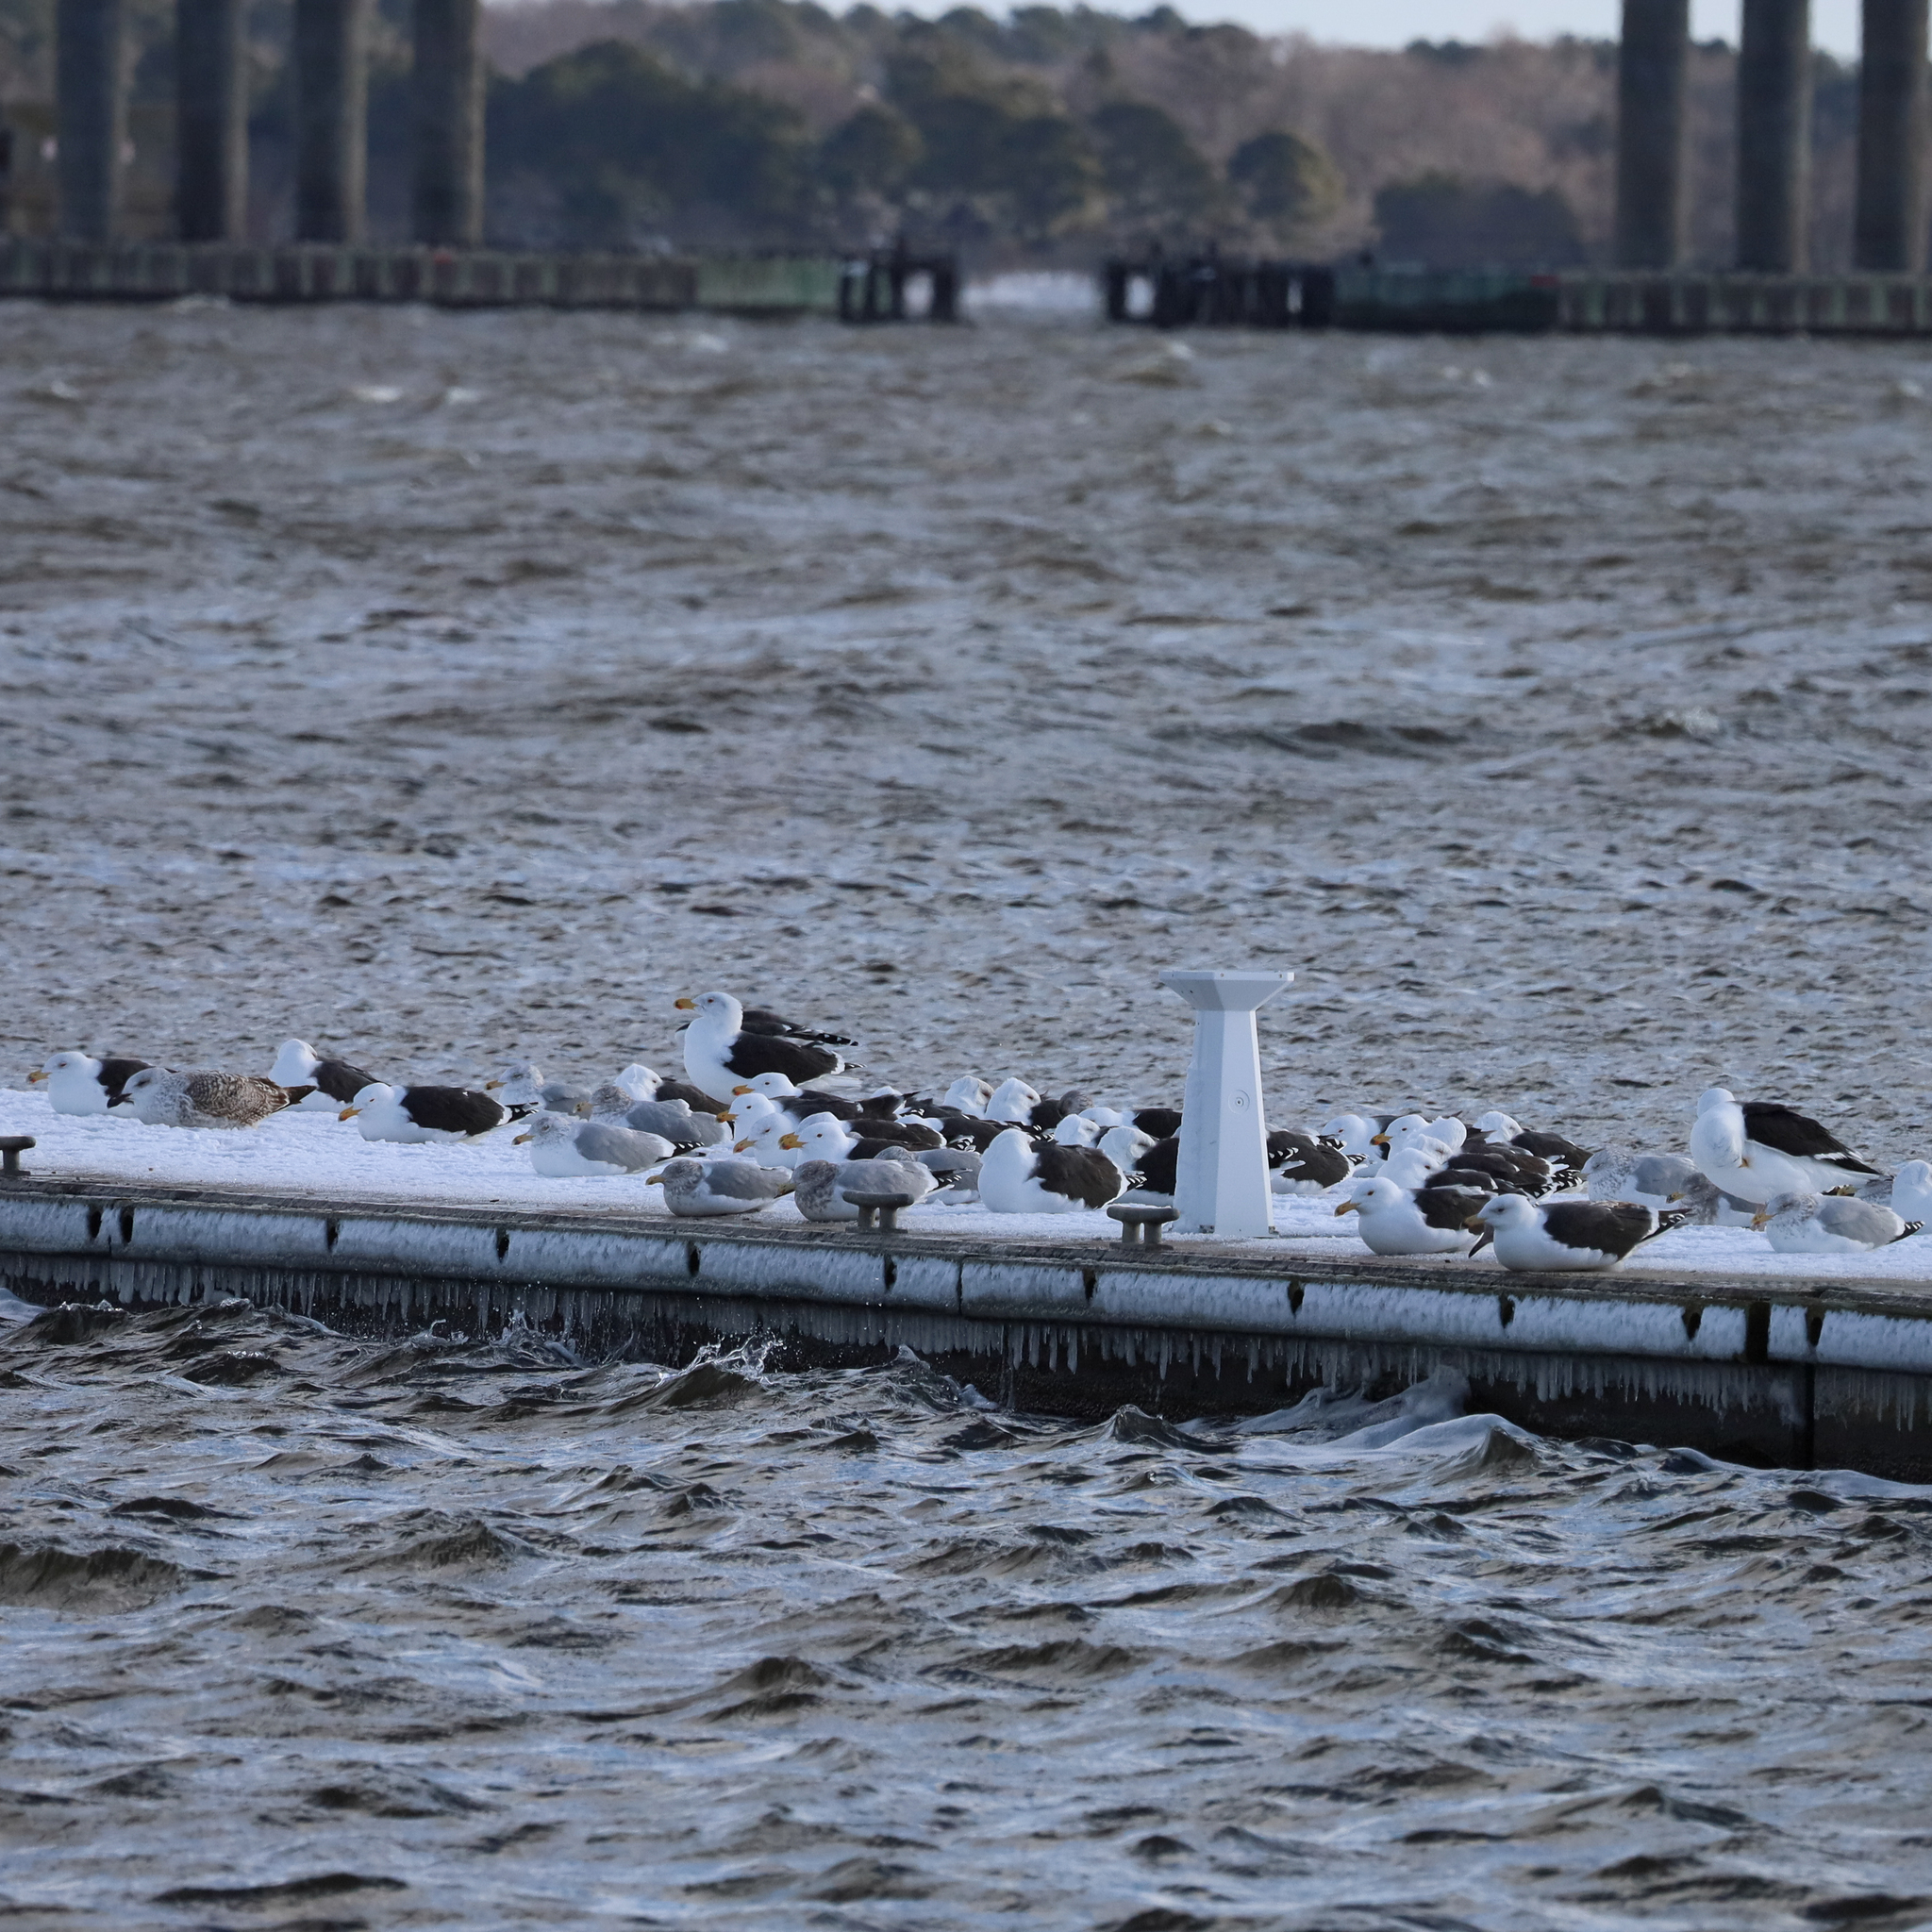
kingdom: Animalia
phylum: Chordata
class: Aves
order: Charadriiformes
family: Laridae
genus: Larus
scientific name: Larus marinus
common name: Great black-backed gull
